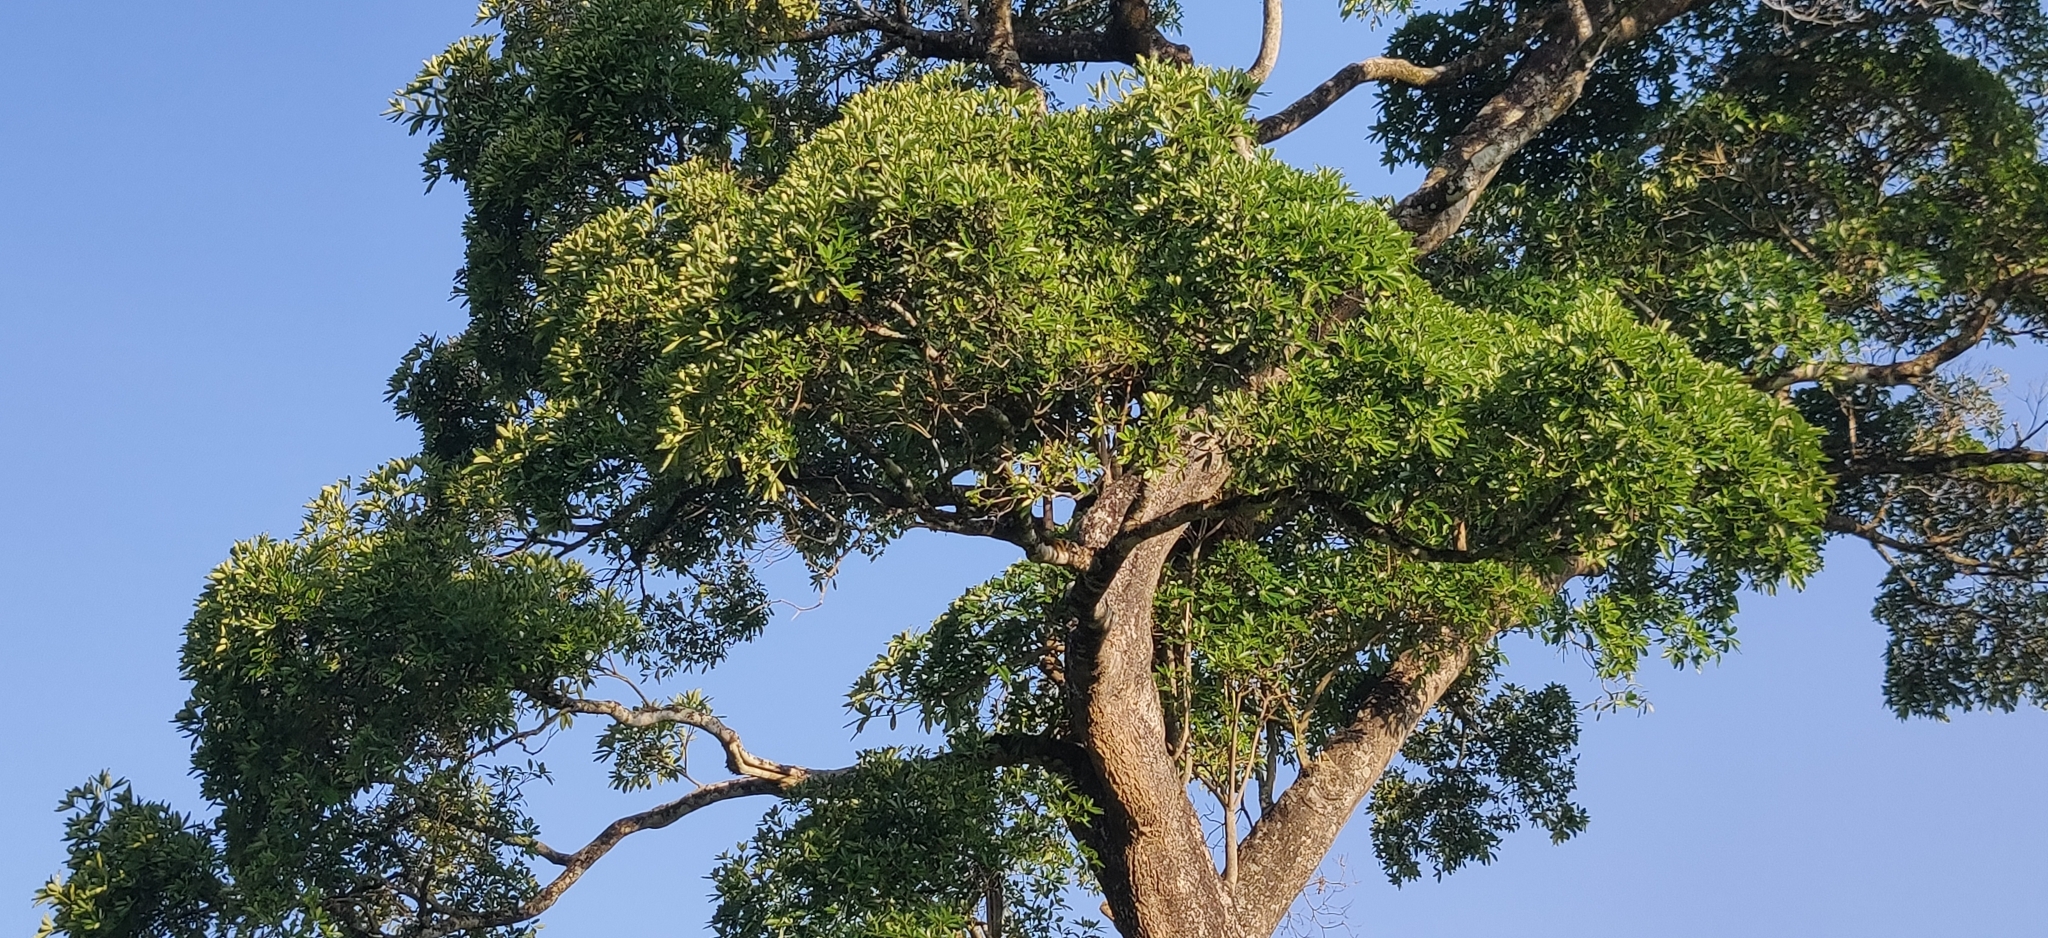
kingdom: Plantae
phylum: Tracheophyta
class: Magnoliopsida
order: Gentianales
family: Apocynaceae
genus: Alstonia
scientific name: Alstonia scholaris
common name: White cheesewood
